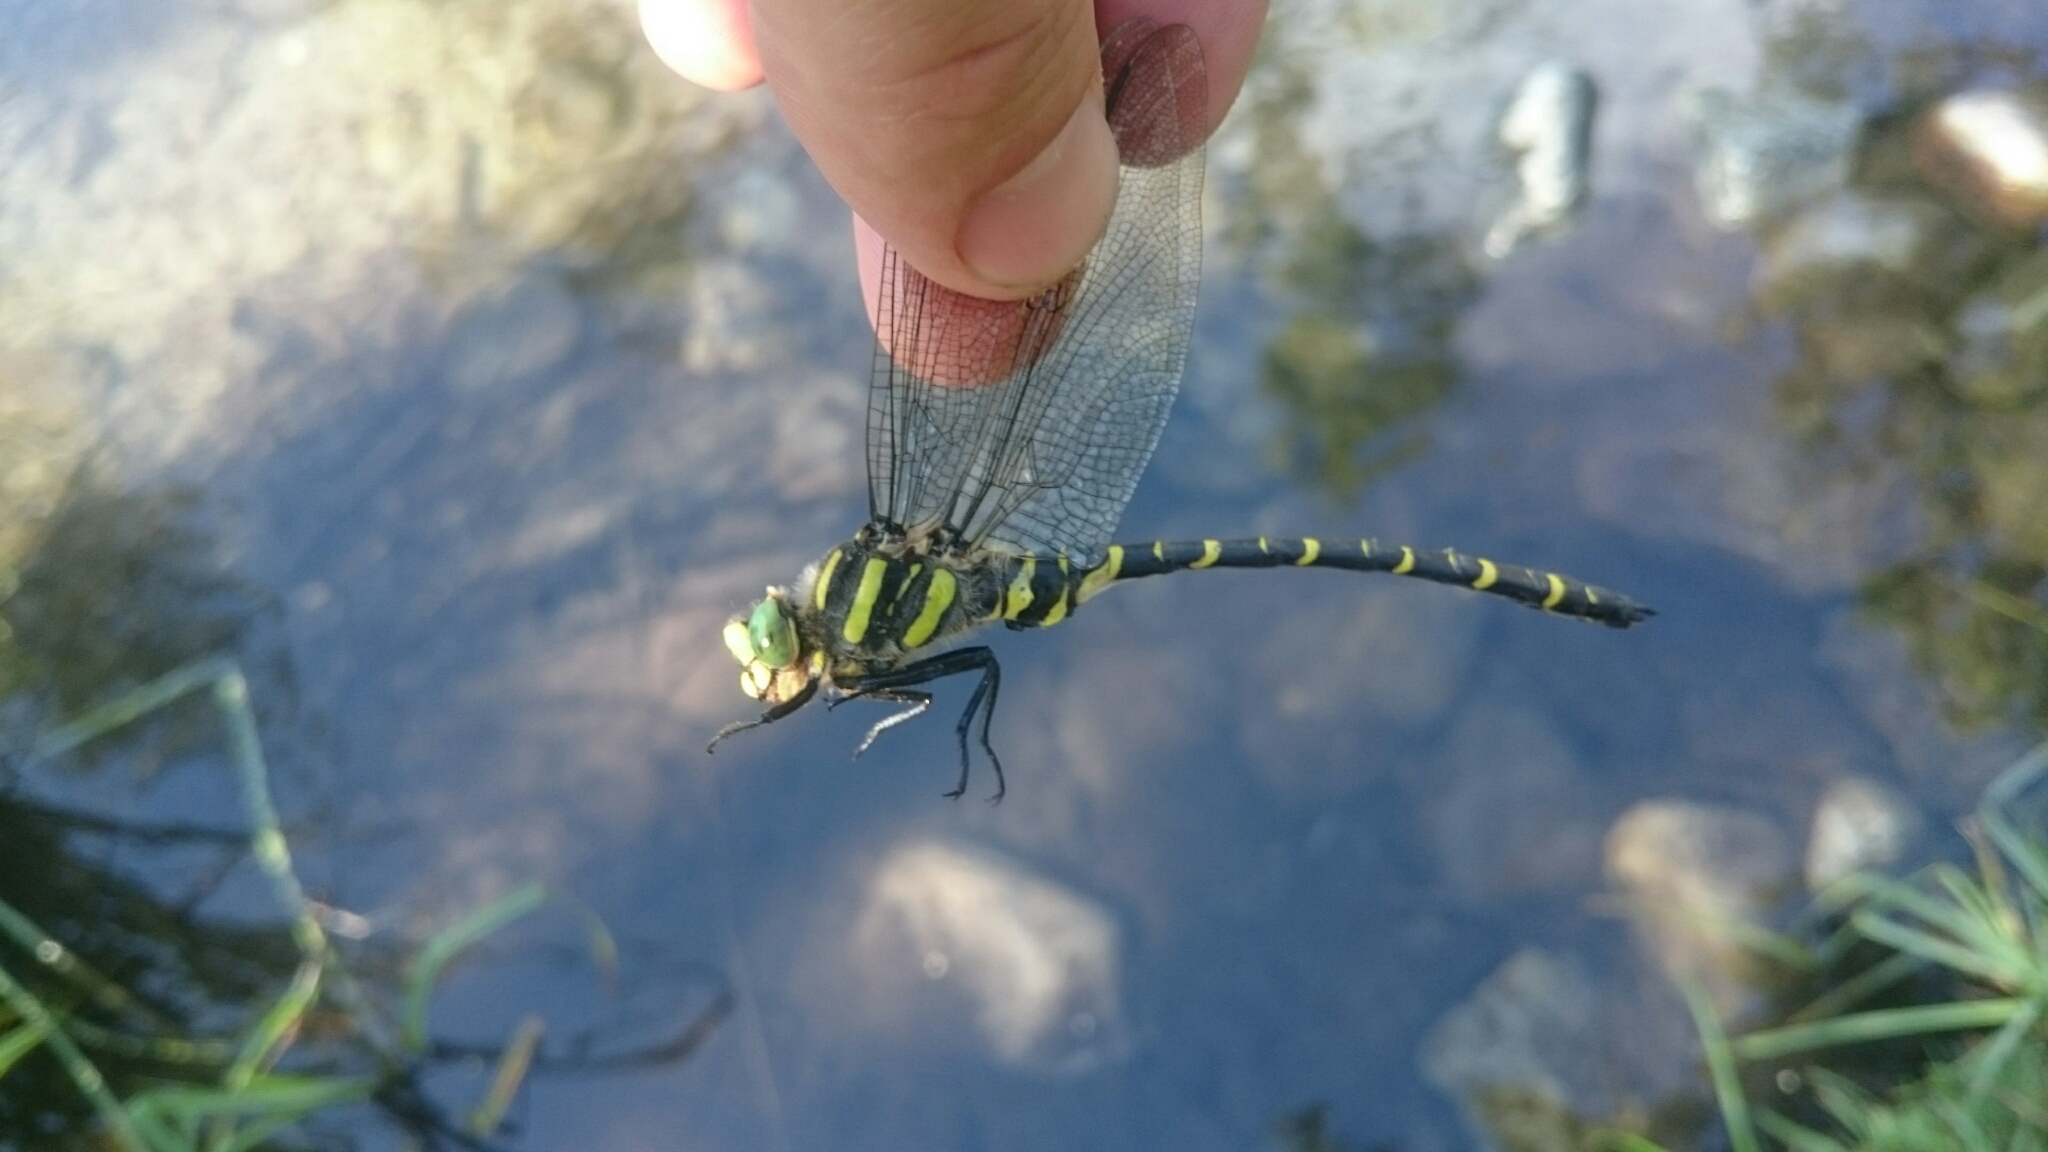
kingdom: Animalia
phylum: Arthropoda
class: Insecta
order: Odonata
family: Cordulegastridae
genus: Cordulegaster
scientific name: Cordulegaster boltonii
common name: Golden-ringed dragonfly
